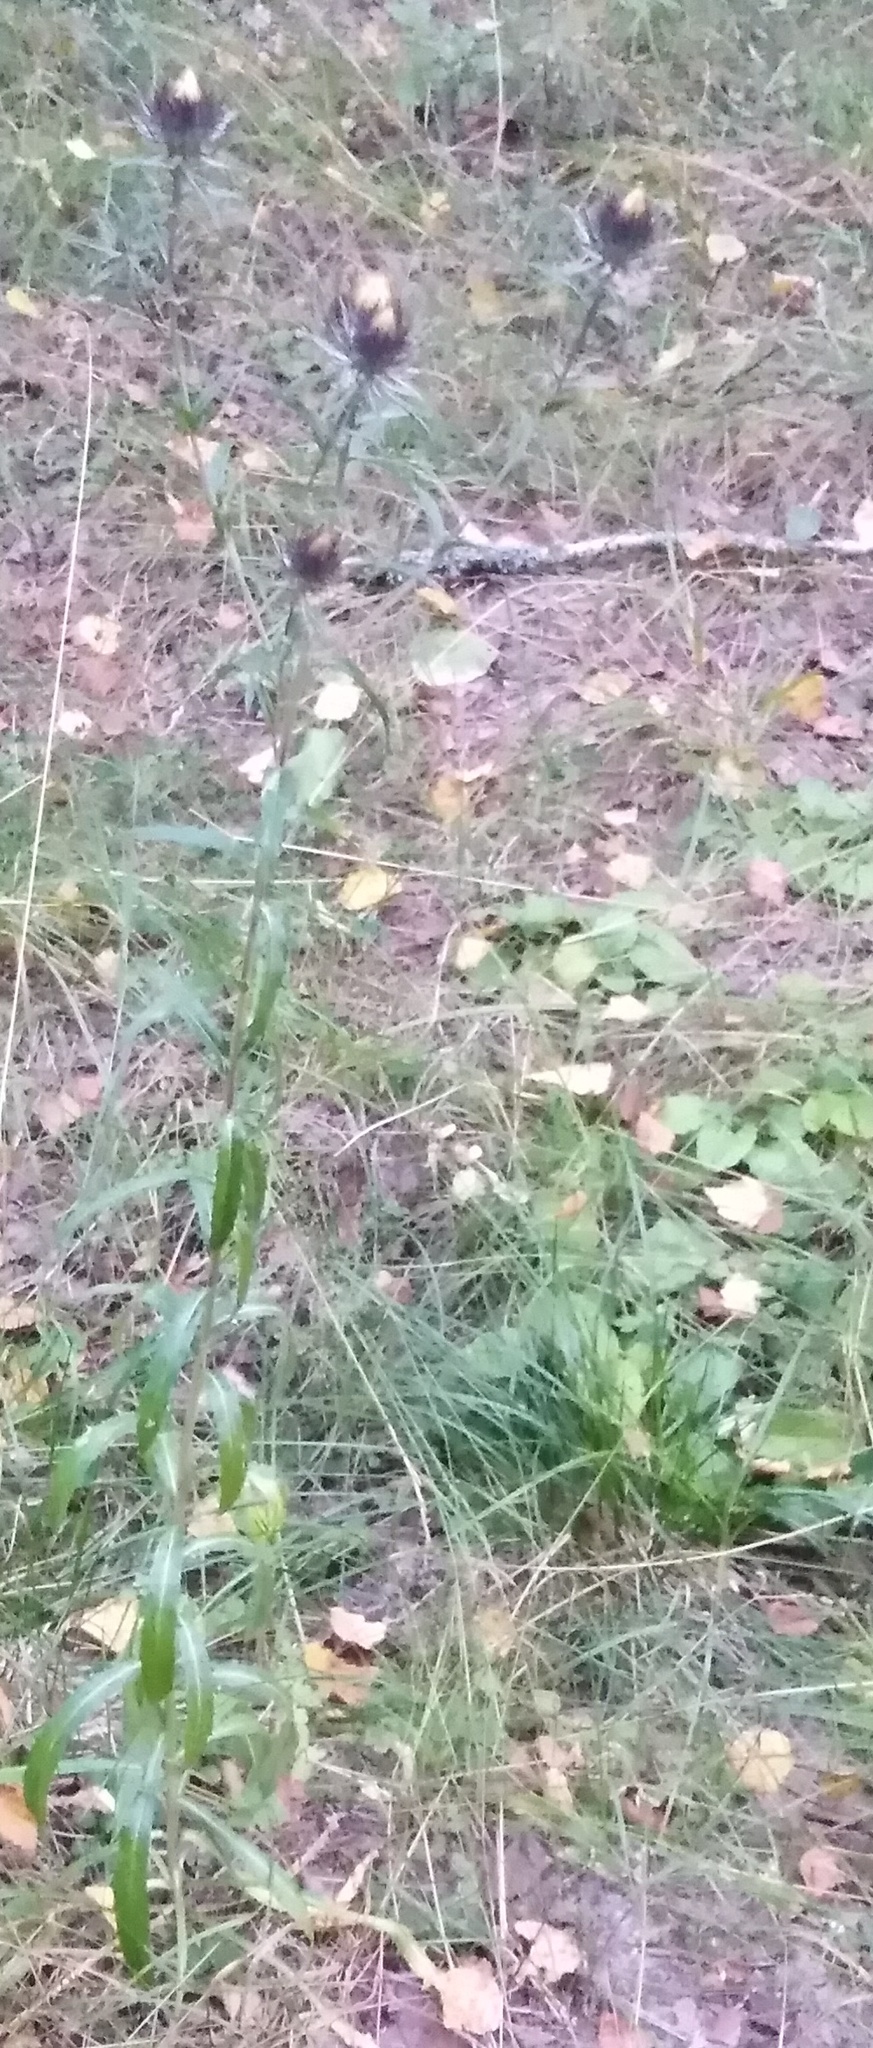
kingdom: Plantae
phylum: Tracheophyta
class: Magnoliopsida
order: Asterales
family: Asteraceae
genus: Carlina
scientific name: Carlina biebersteinii
